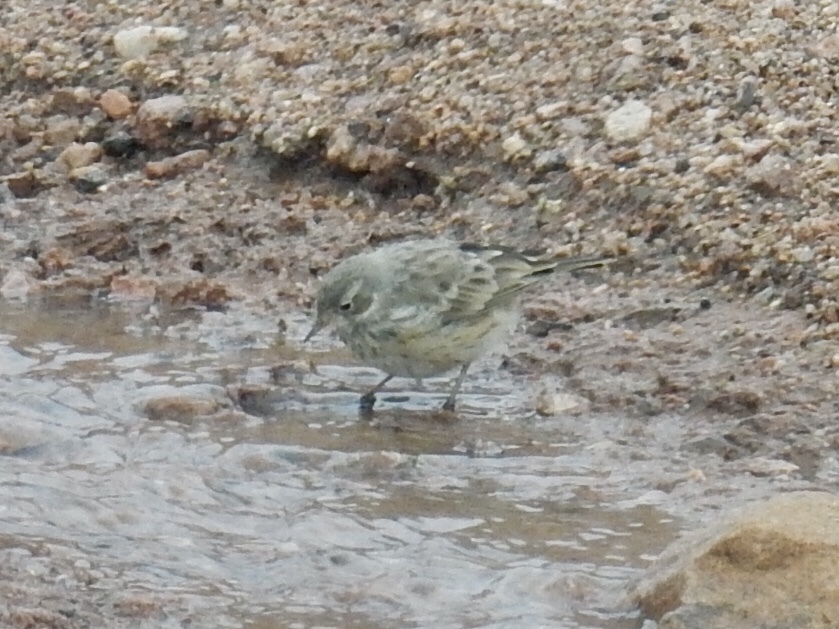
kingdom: Animalia
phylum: Chordata
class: Aves
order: Passeriformes
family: Motacillidae
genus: Anthus
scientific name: Anthus rubescens
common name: Buff-bellied pipit
